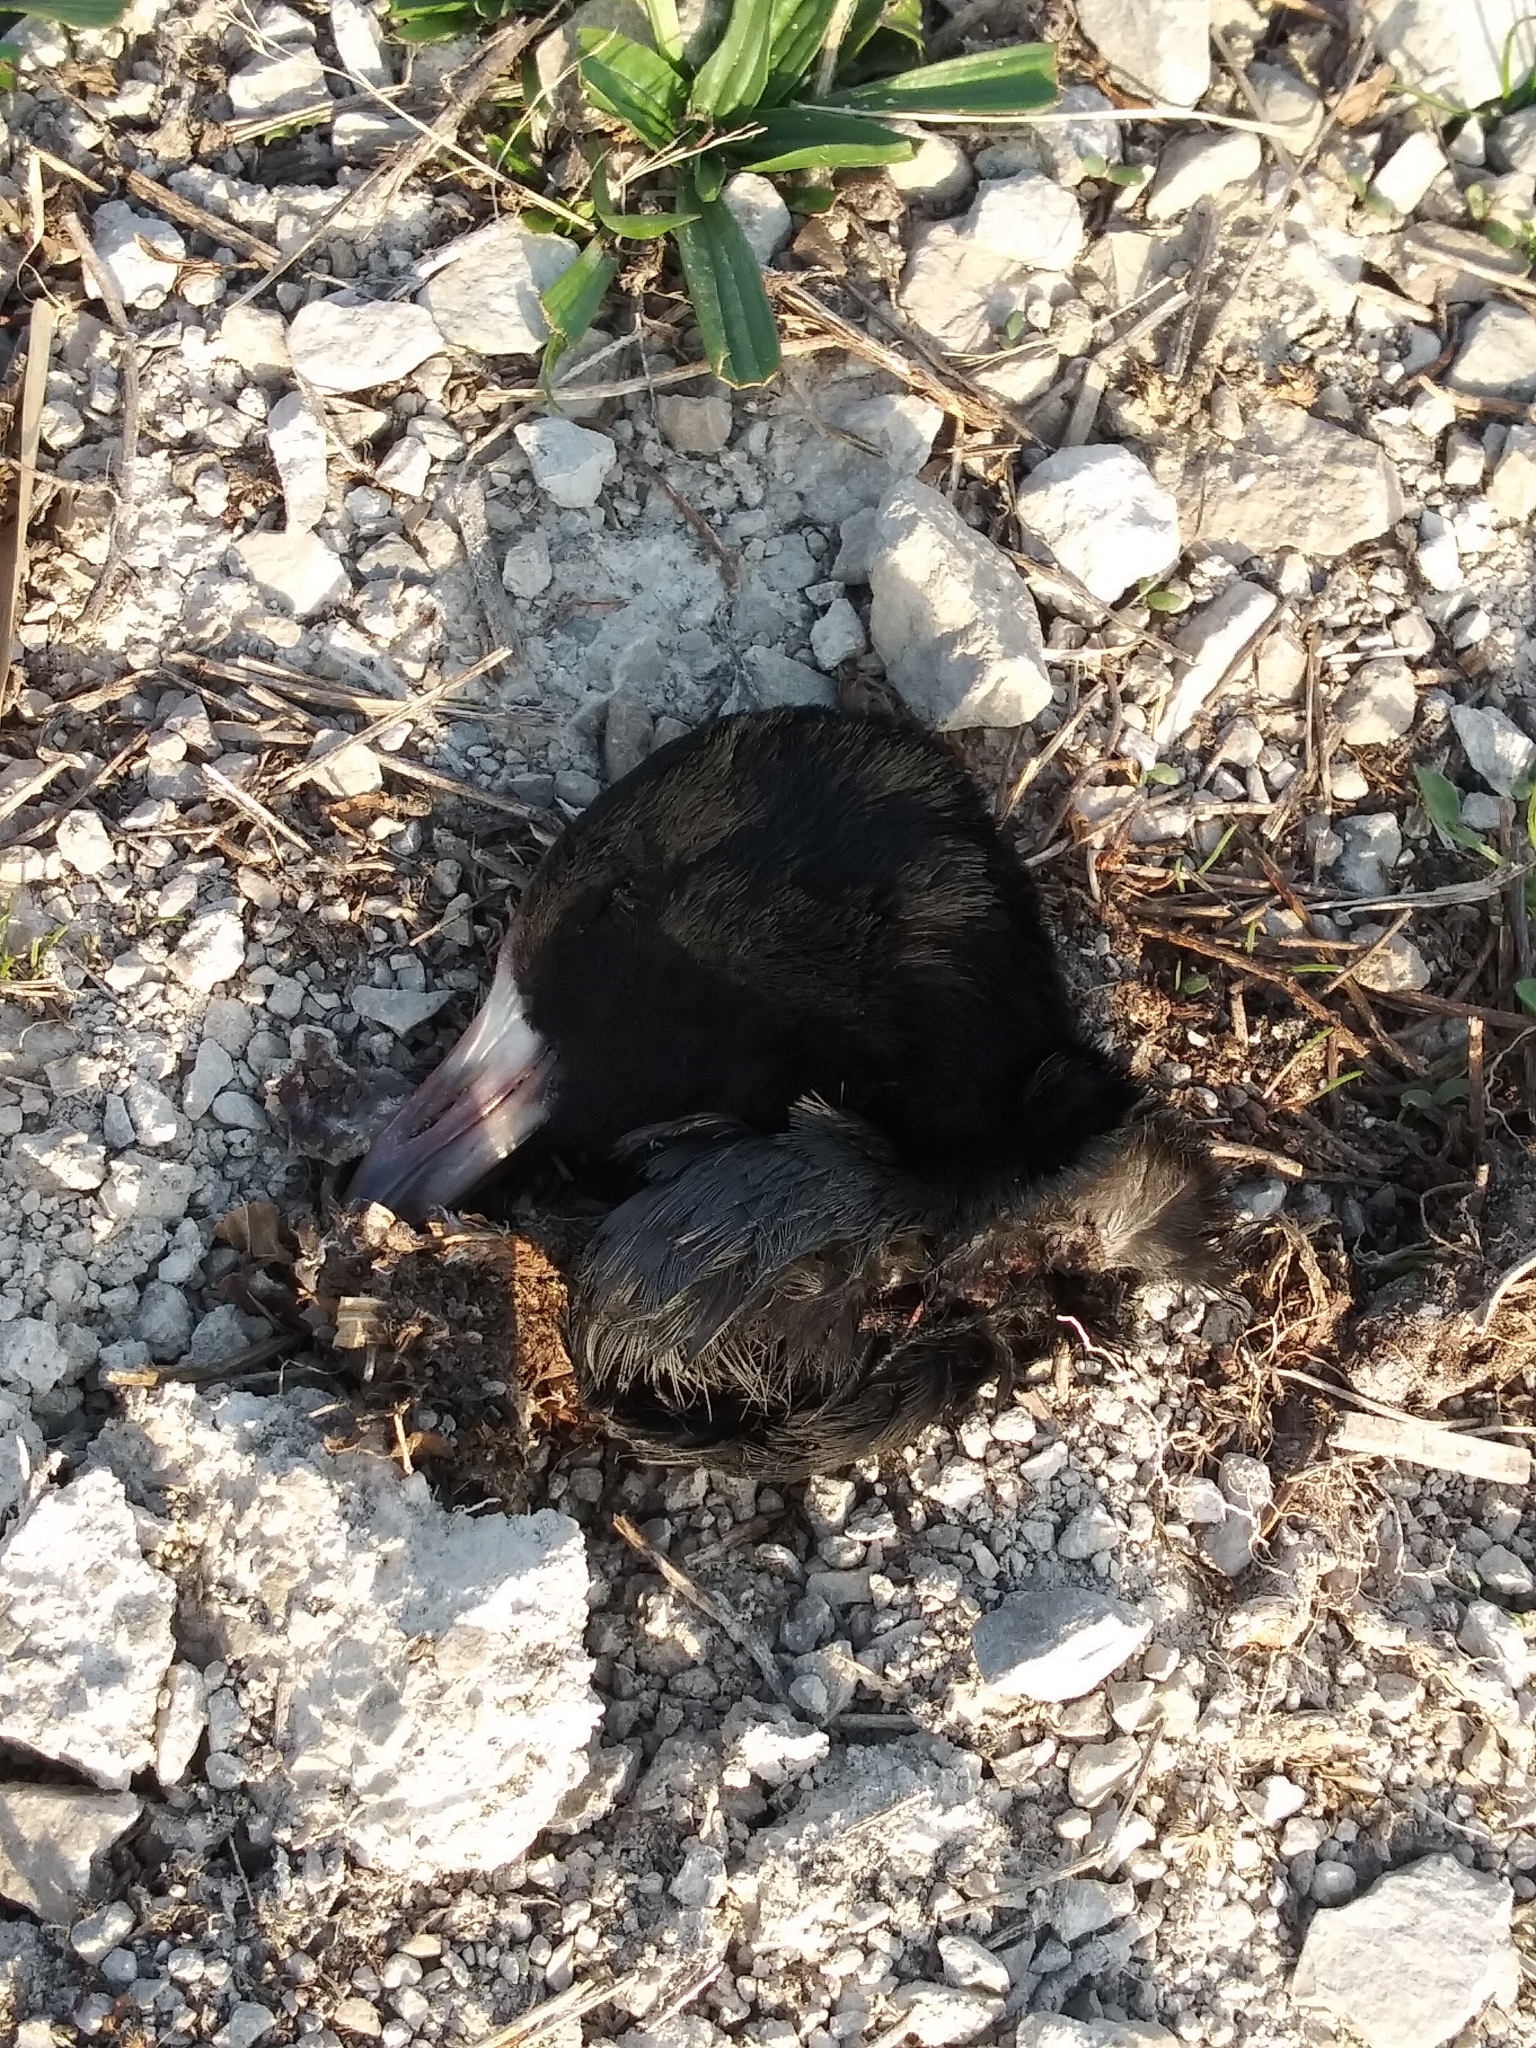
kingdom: Animalia
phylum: Chordata
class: Aves
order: Gruiformes
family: Rallidae
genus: Fulica
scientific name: Fulica americana
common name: American coot
